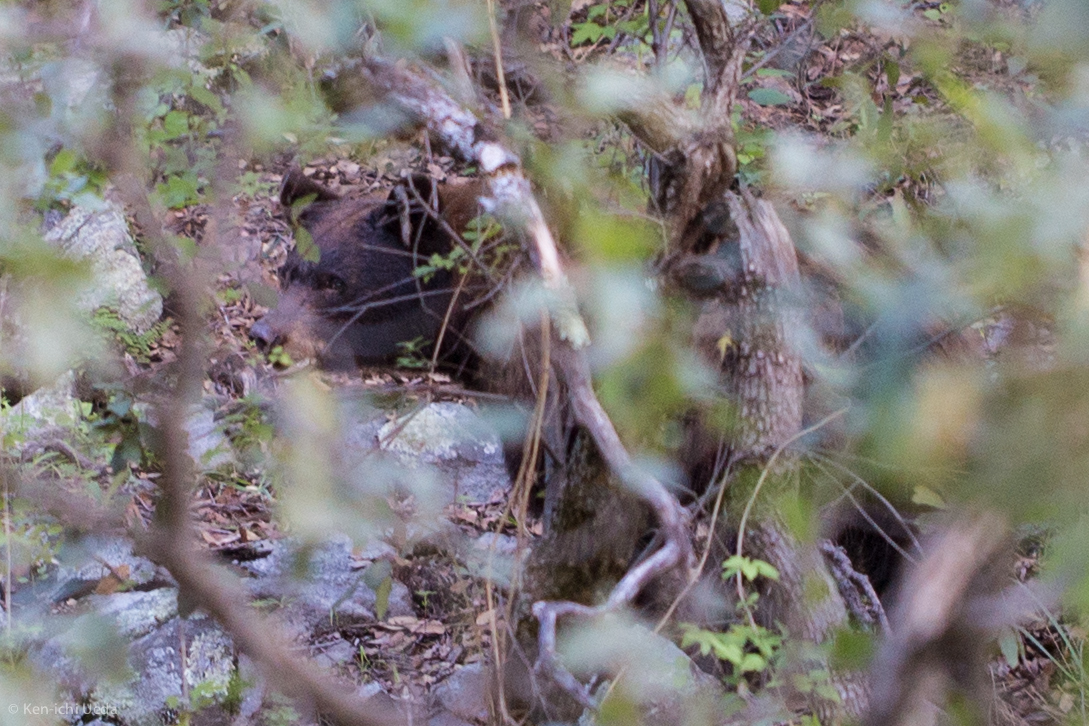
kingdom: Animalia
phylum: Chordata
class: Mammalia
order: Carnivora
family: Ursidae
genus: Ursus
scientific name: Ursus americanus
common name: American black bear
